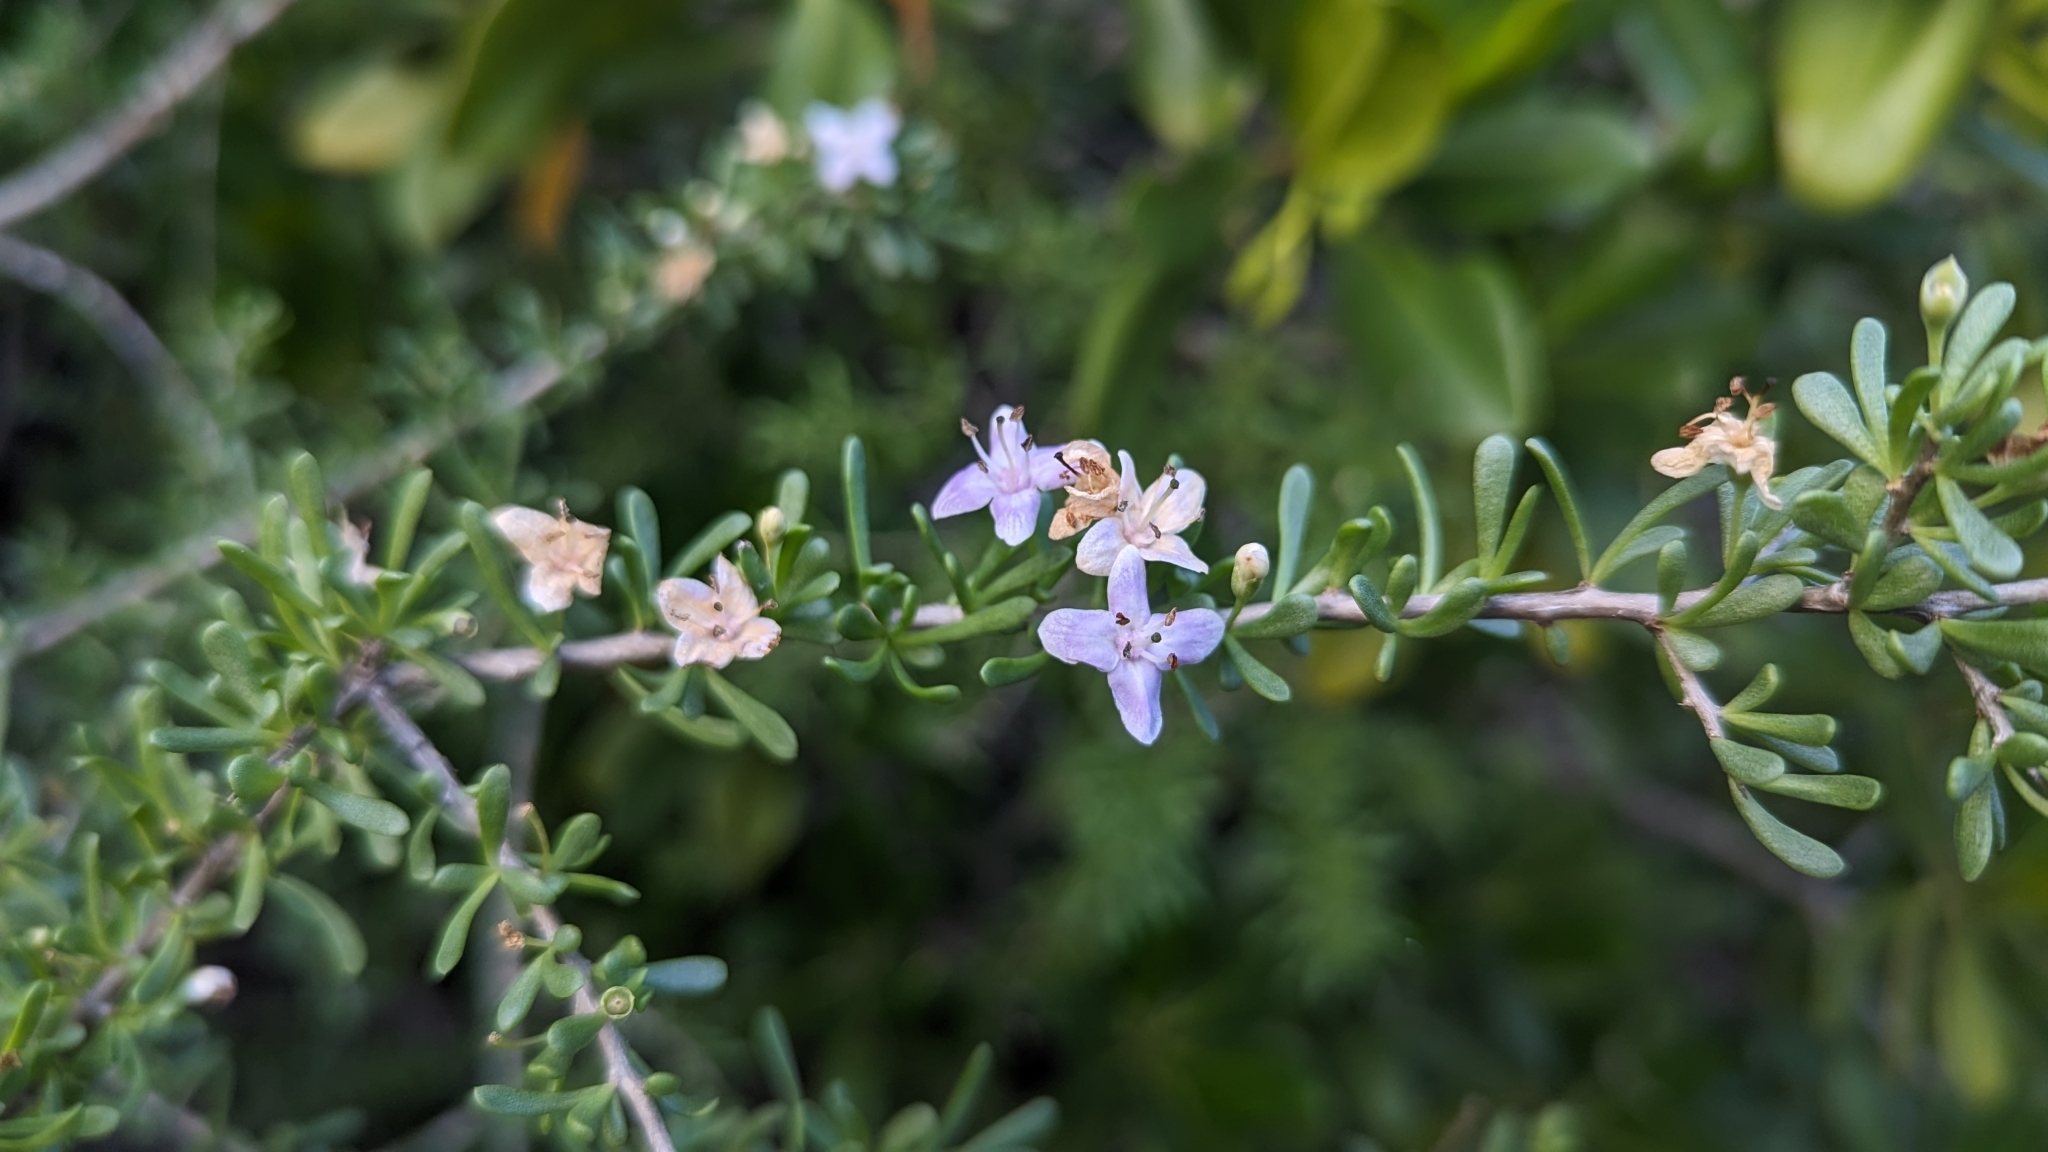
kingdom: Plantae
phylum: Tracheophyta
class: Magnoliopsida
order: Solanales
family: Solanaceae
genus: Lycium
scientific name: Lycium carolinianum
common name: Christmasberry
